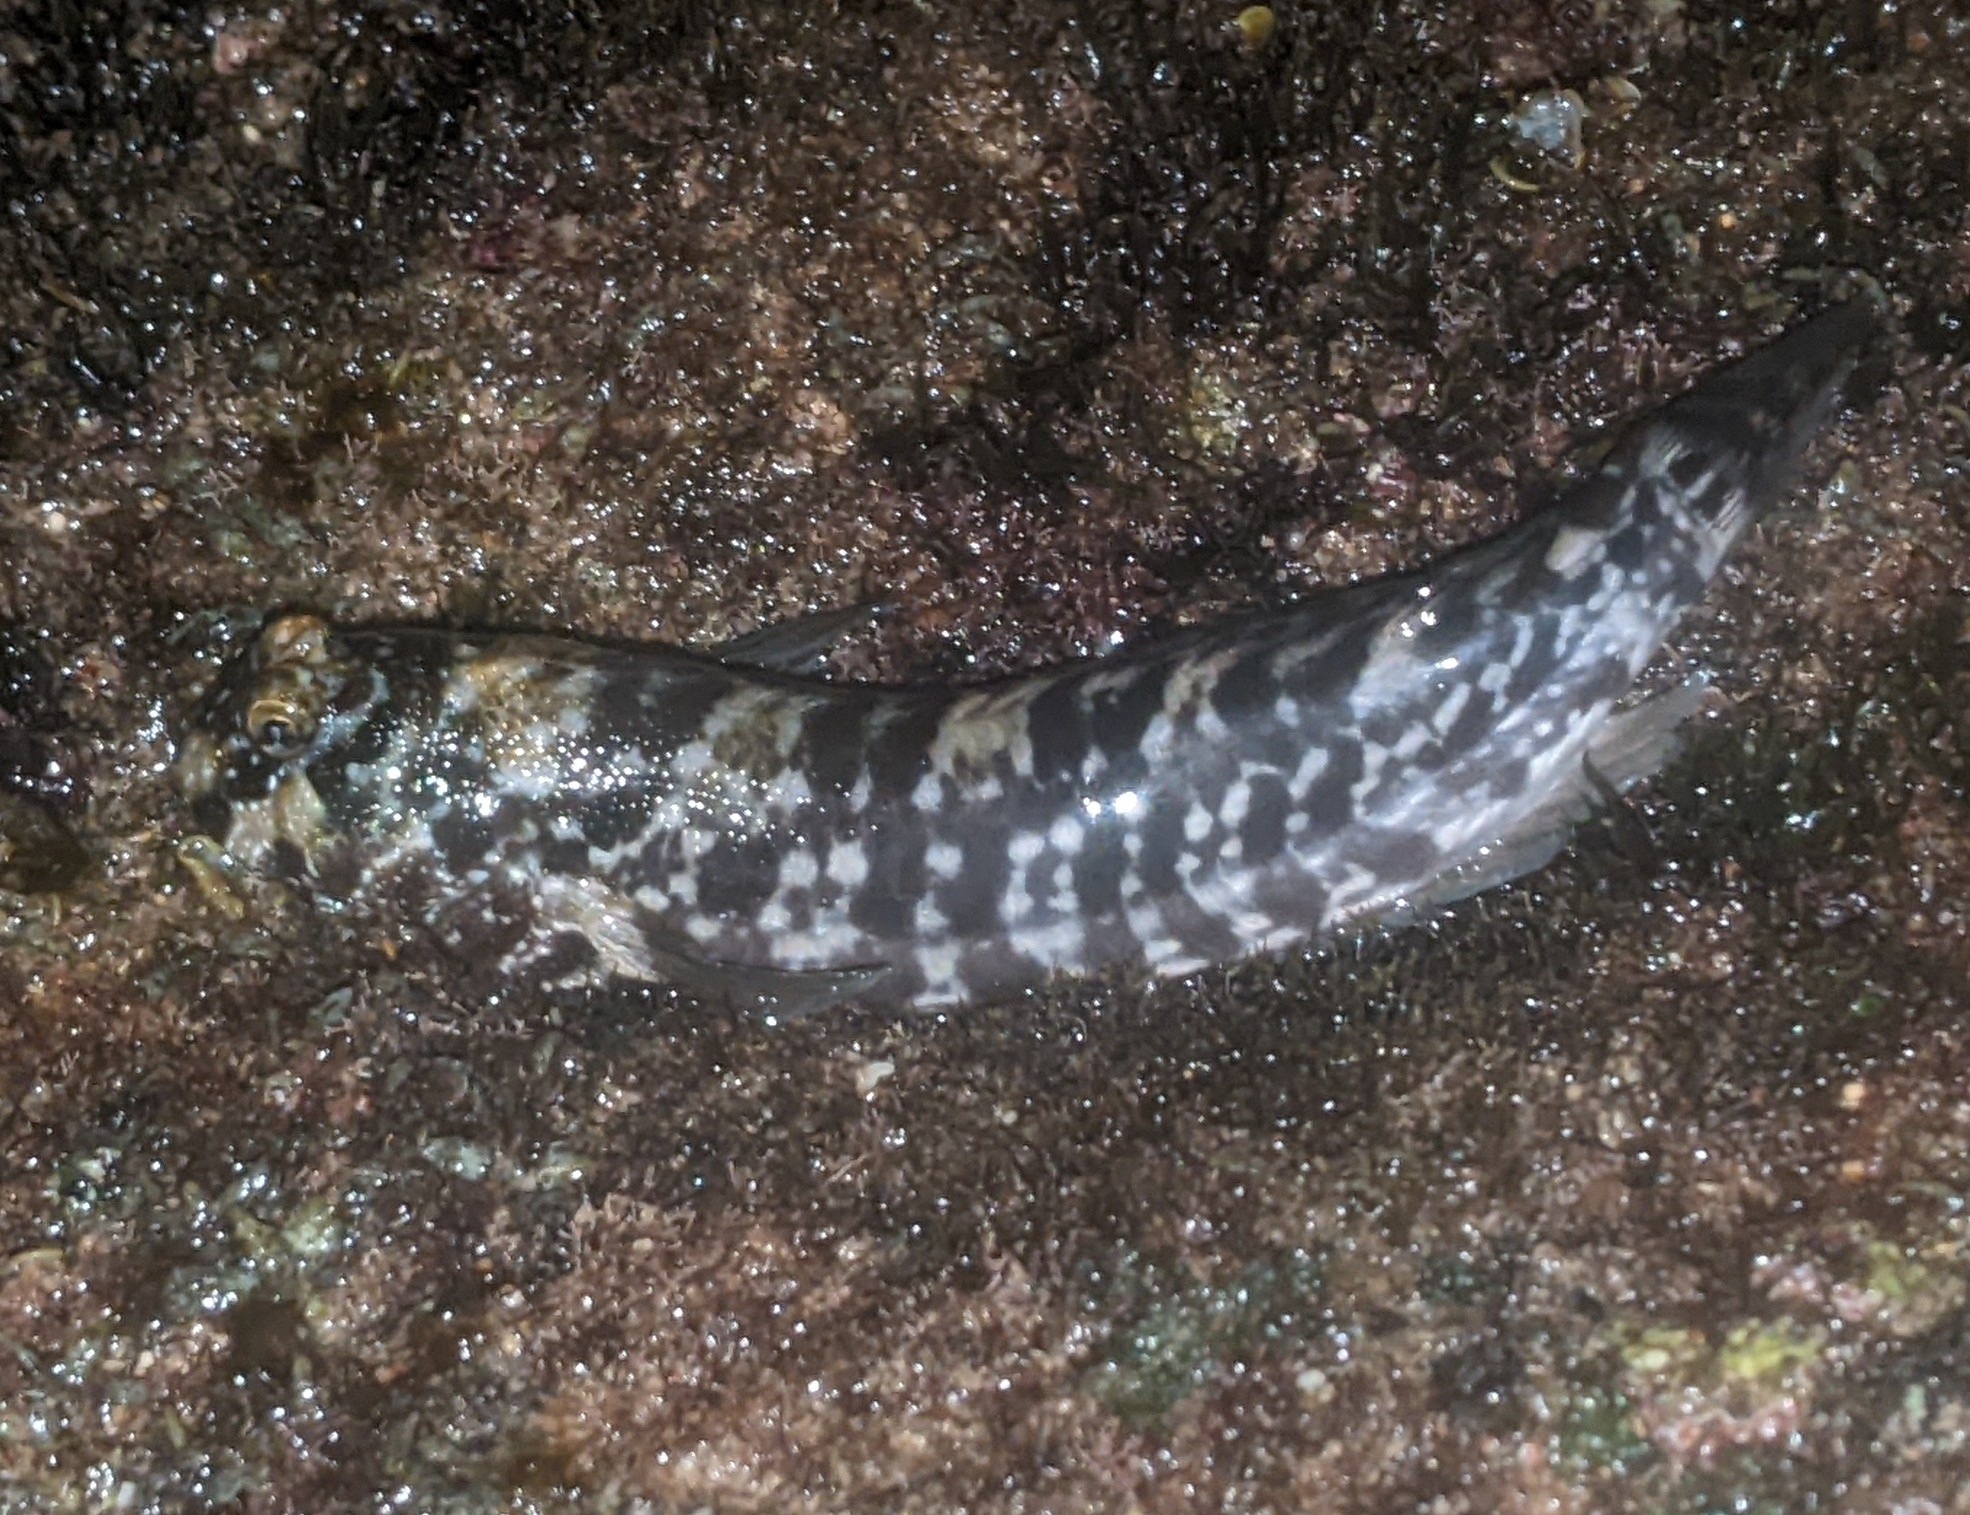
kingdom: Animalia
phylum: Chordata
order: Perciformes
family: Blenniidae
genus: Entomacrodus
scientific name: Entomacrodus marmoratus
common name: Marbled blenny
